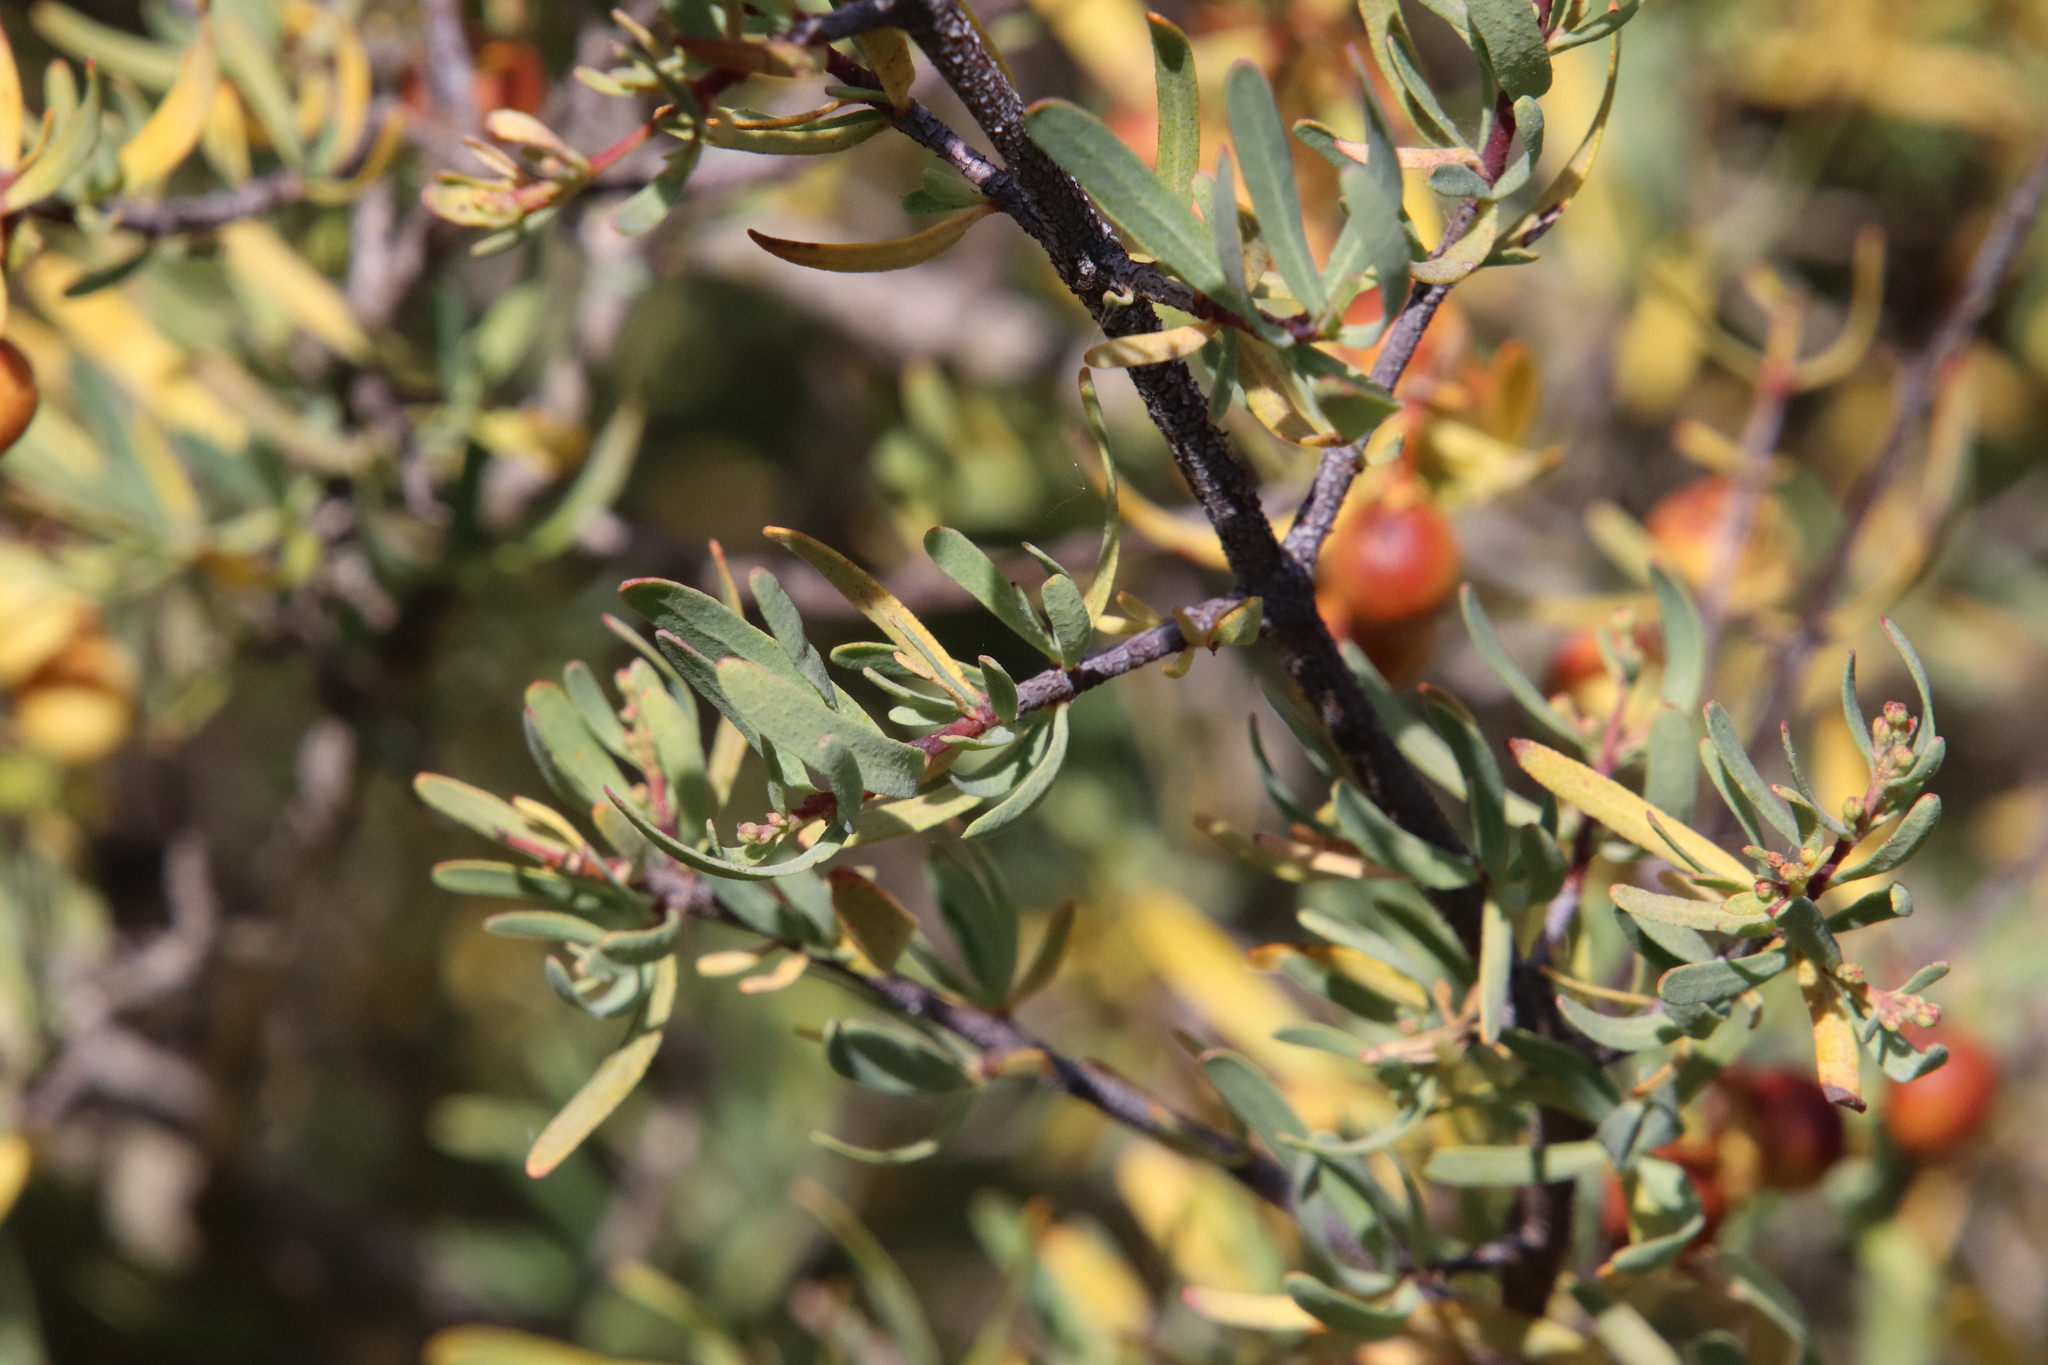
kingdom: Plantae
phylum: Tracheophyta
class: Magnoliopsida
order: Sapindales
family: Rutaceae
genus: Cneoridium
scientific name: Cneoridium dumosum
